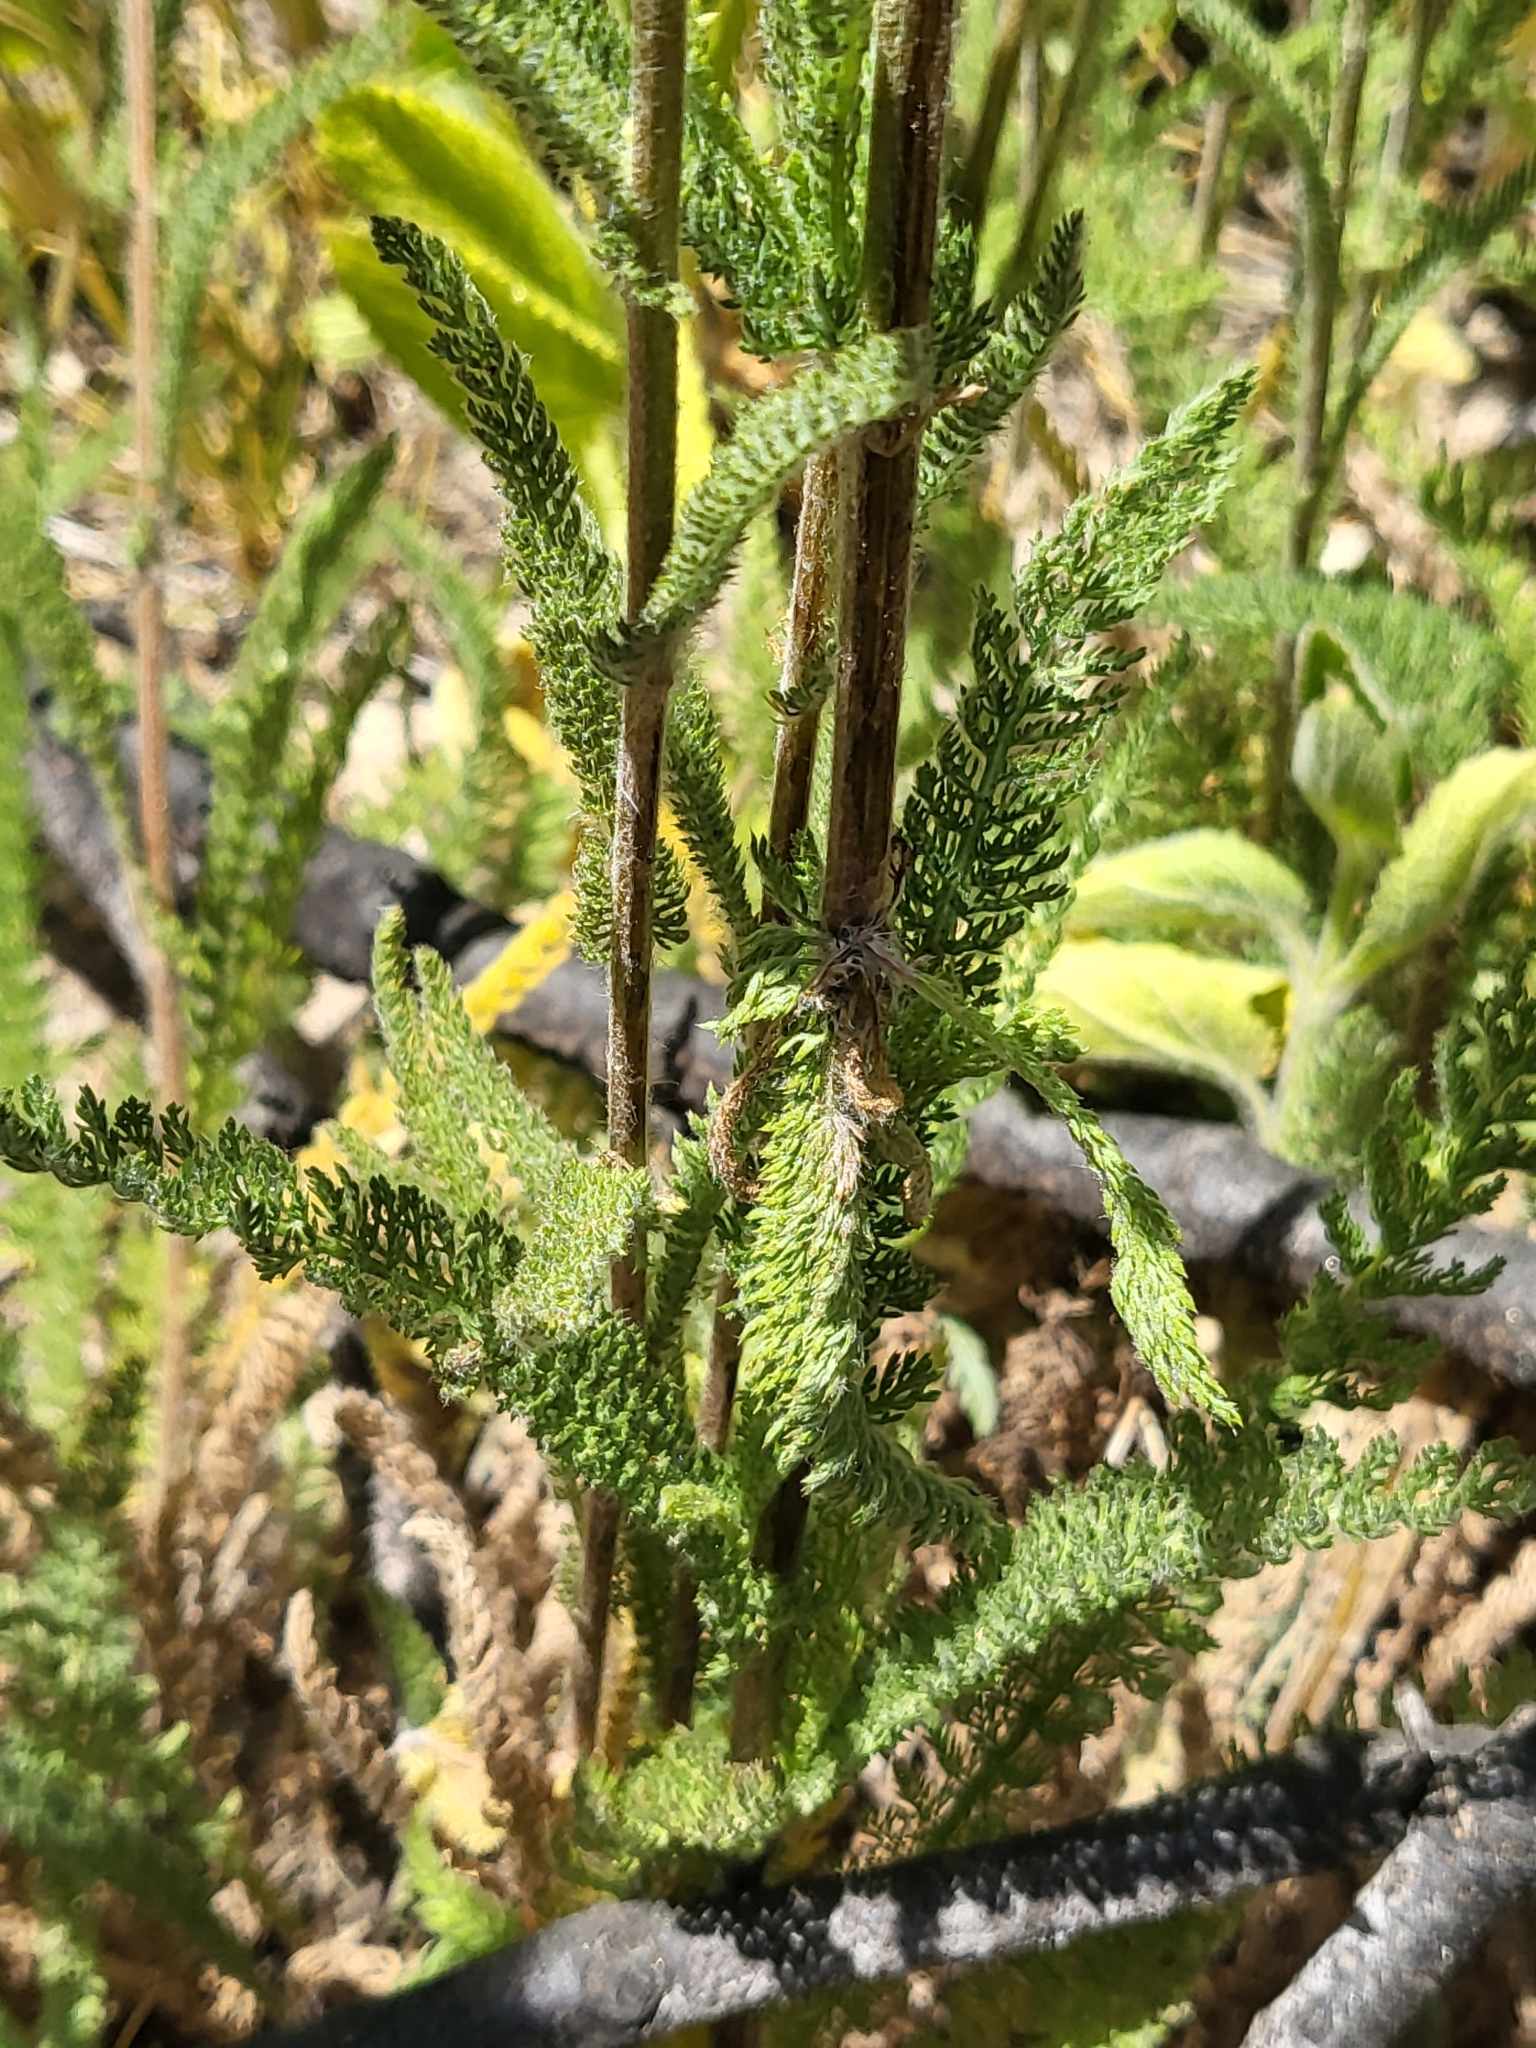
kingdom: Plantae
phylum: Tracheophyta
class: Magnoliopsida
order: Asterales
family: Asteraceae
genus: Achillea
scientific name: Achillea millefolium
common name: Yarrow
